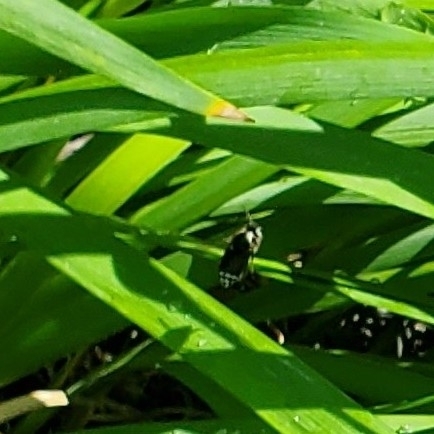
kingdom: Animalia
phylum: Arthropoda
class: Insecta
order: Hymenoptera
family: Vespidae
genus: Dolichovespula
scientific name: Dolichovespula maculata
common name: Bald-faced hornet
